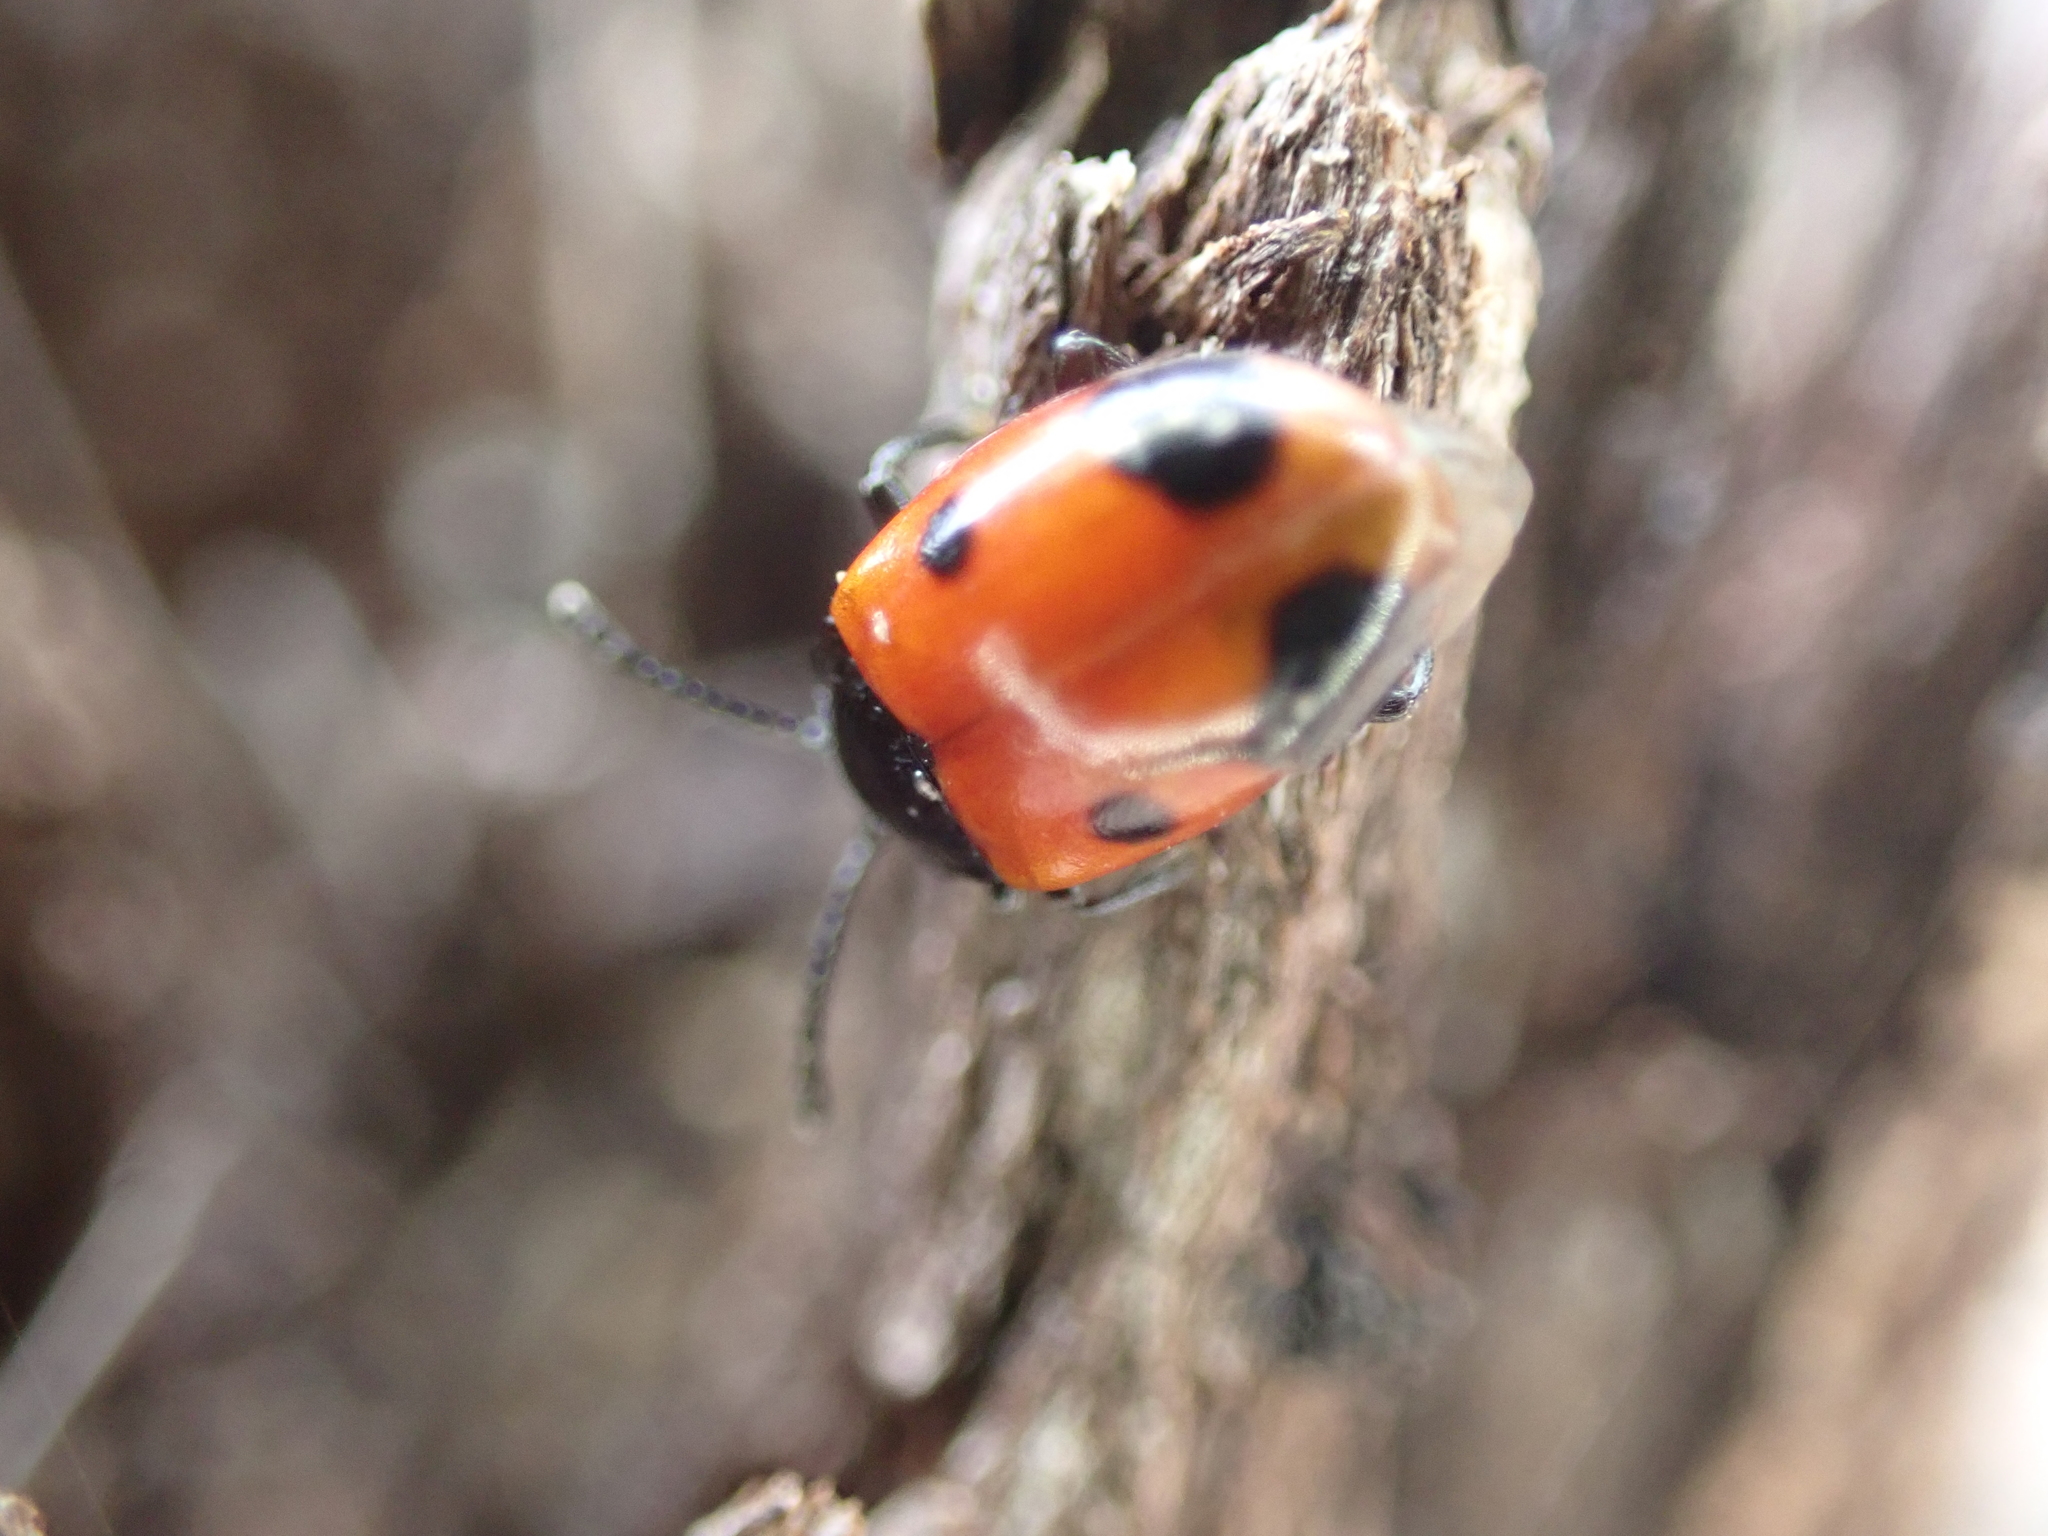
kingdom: Animalia
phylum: Arthropoda
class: Insecta
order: Coleoptera
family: Endomychidae
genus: Endomychus
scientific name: Endomychus biguttatus
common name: Handsome fungus beetle
